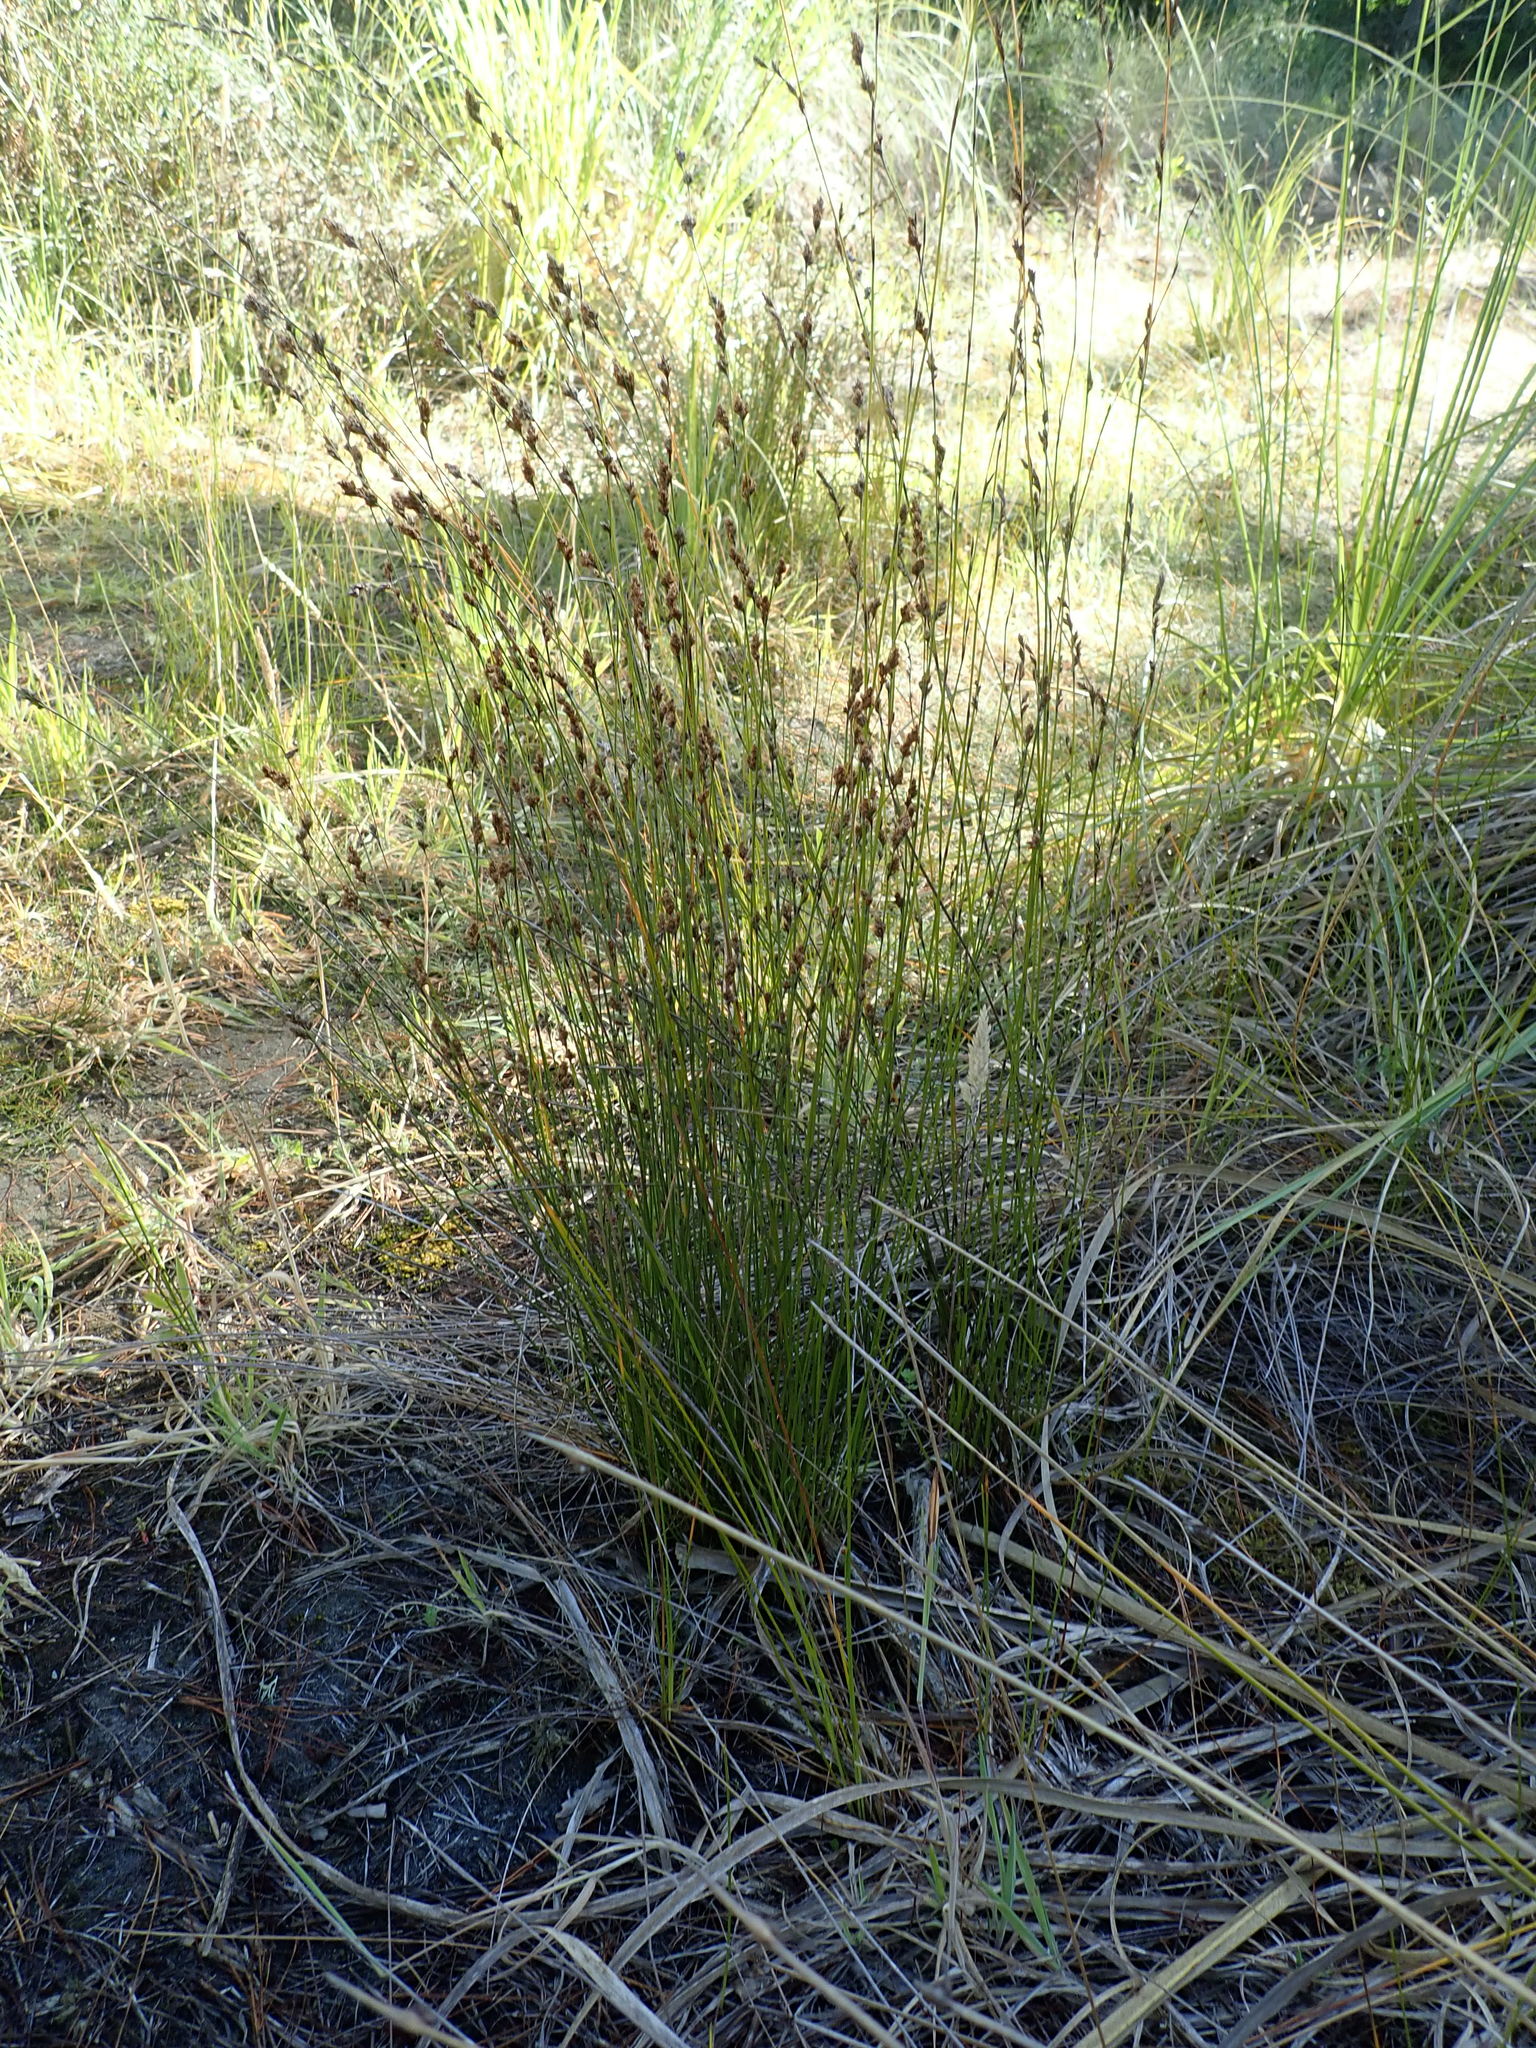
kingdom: Plantae
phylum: Tracheophyta
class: Liliopsida
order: Poales
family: Restionaceae
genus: Apodasmia
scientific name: Apodasmia similis
